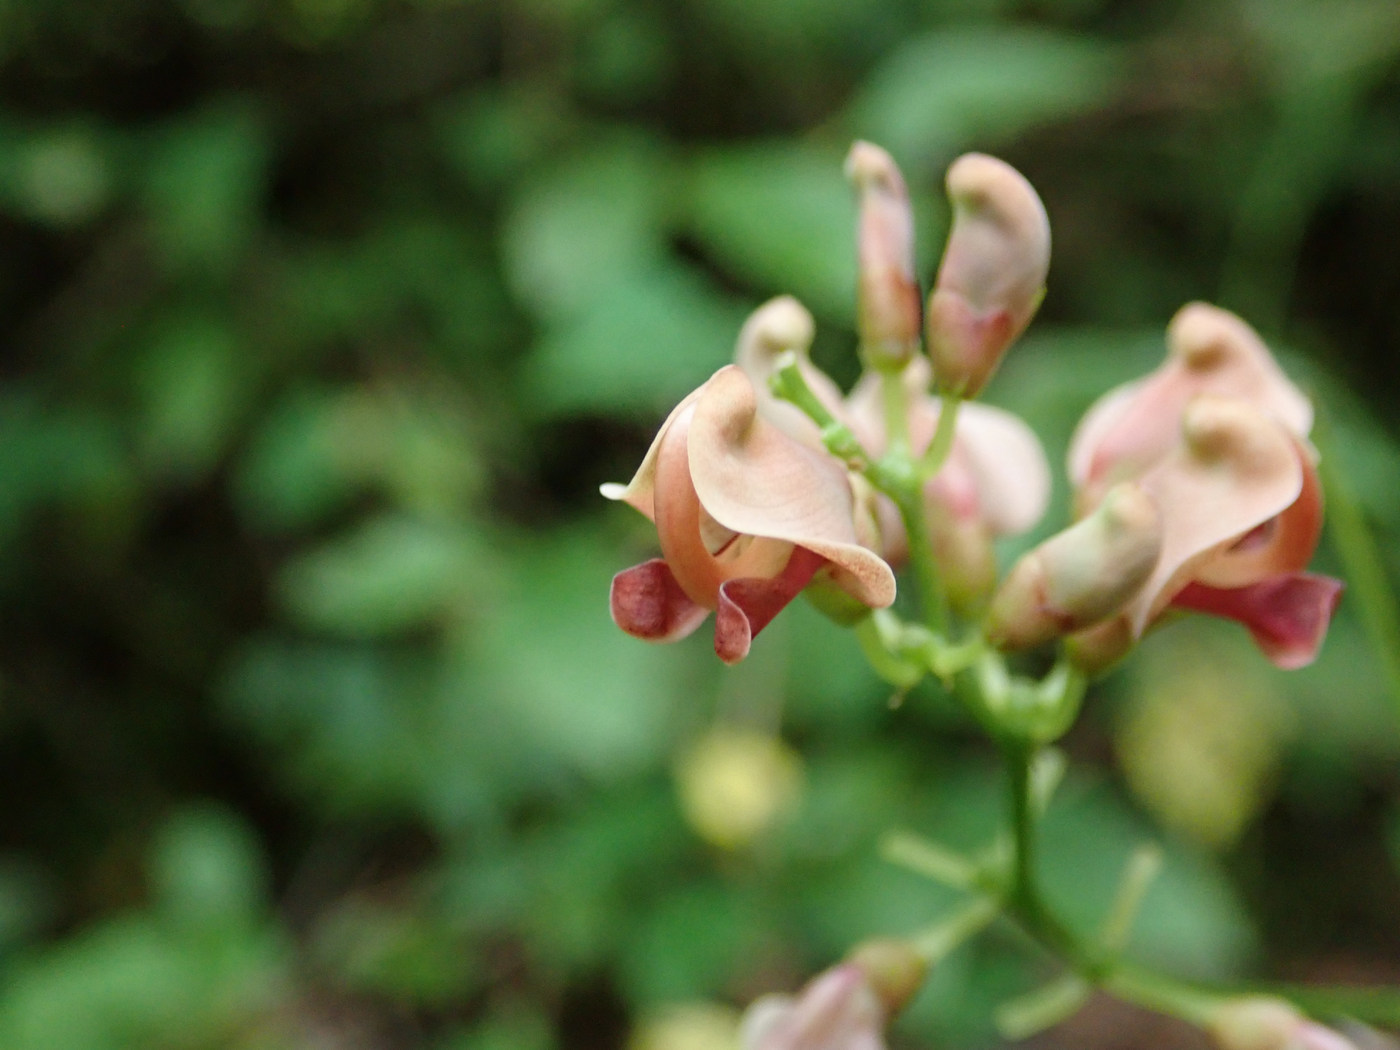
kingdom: Plantae
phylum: Tracheophyta
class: Magnoliopsida
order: Fabales
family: Fabaceae
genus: Apios
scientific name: Apios americana
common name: American potato-bean
